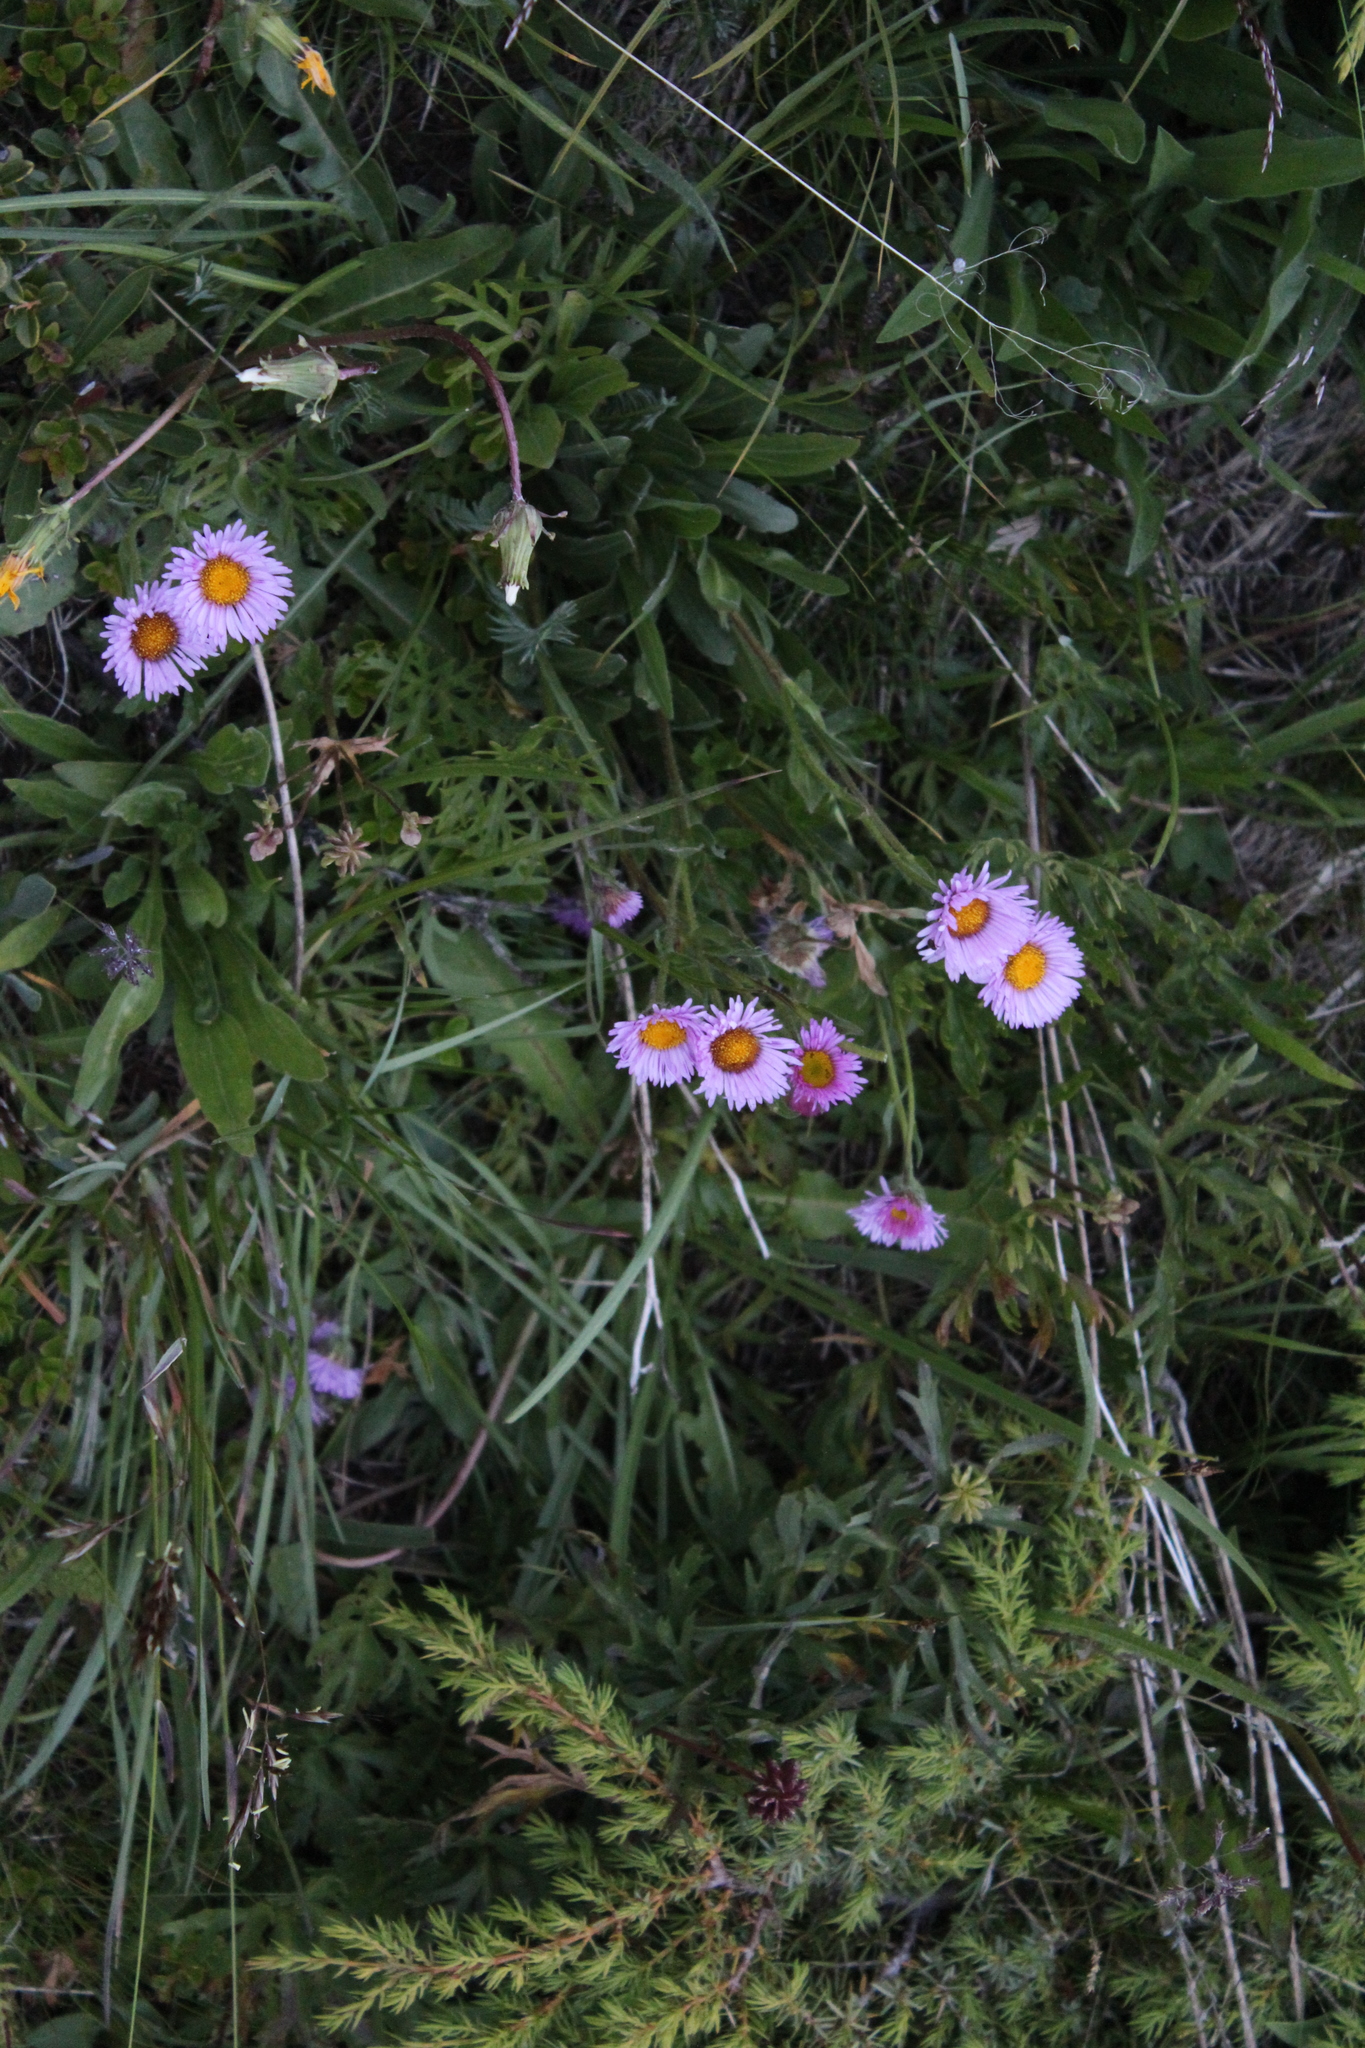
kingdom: Plantae
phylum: Tracheophyta
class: Magnoliopsida
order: Asterales
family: Asteraceae
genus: Erigeron
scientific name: Erigeron caucasicus
